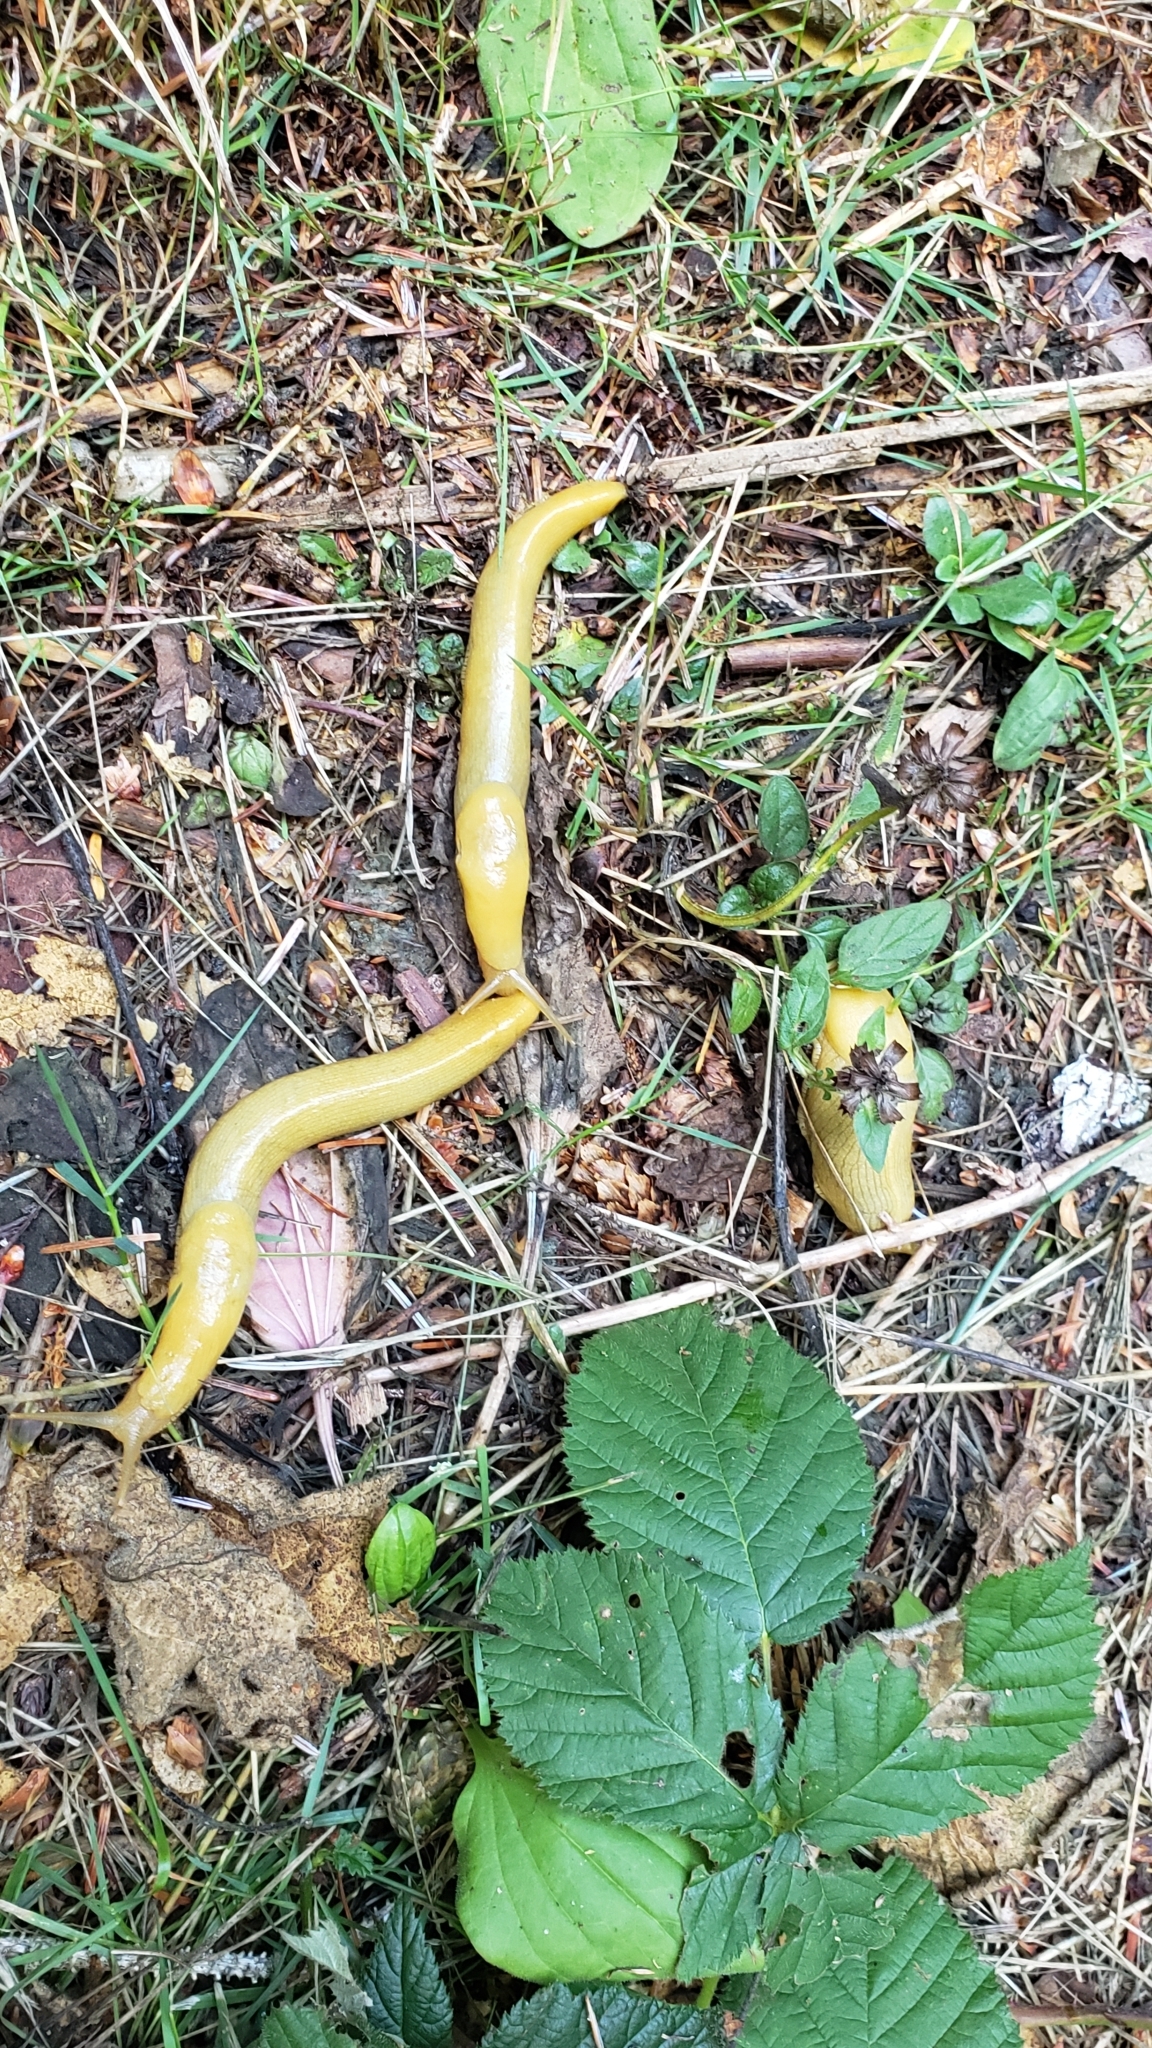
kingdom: Animalia
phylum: Mollusca
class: Gastropoda
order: Stylommatophora
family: Ariolimacidae
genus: Ariolimax
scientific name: Ariolimax columbianus
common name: Pacific banana slug
